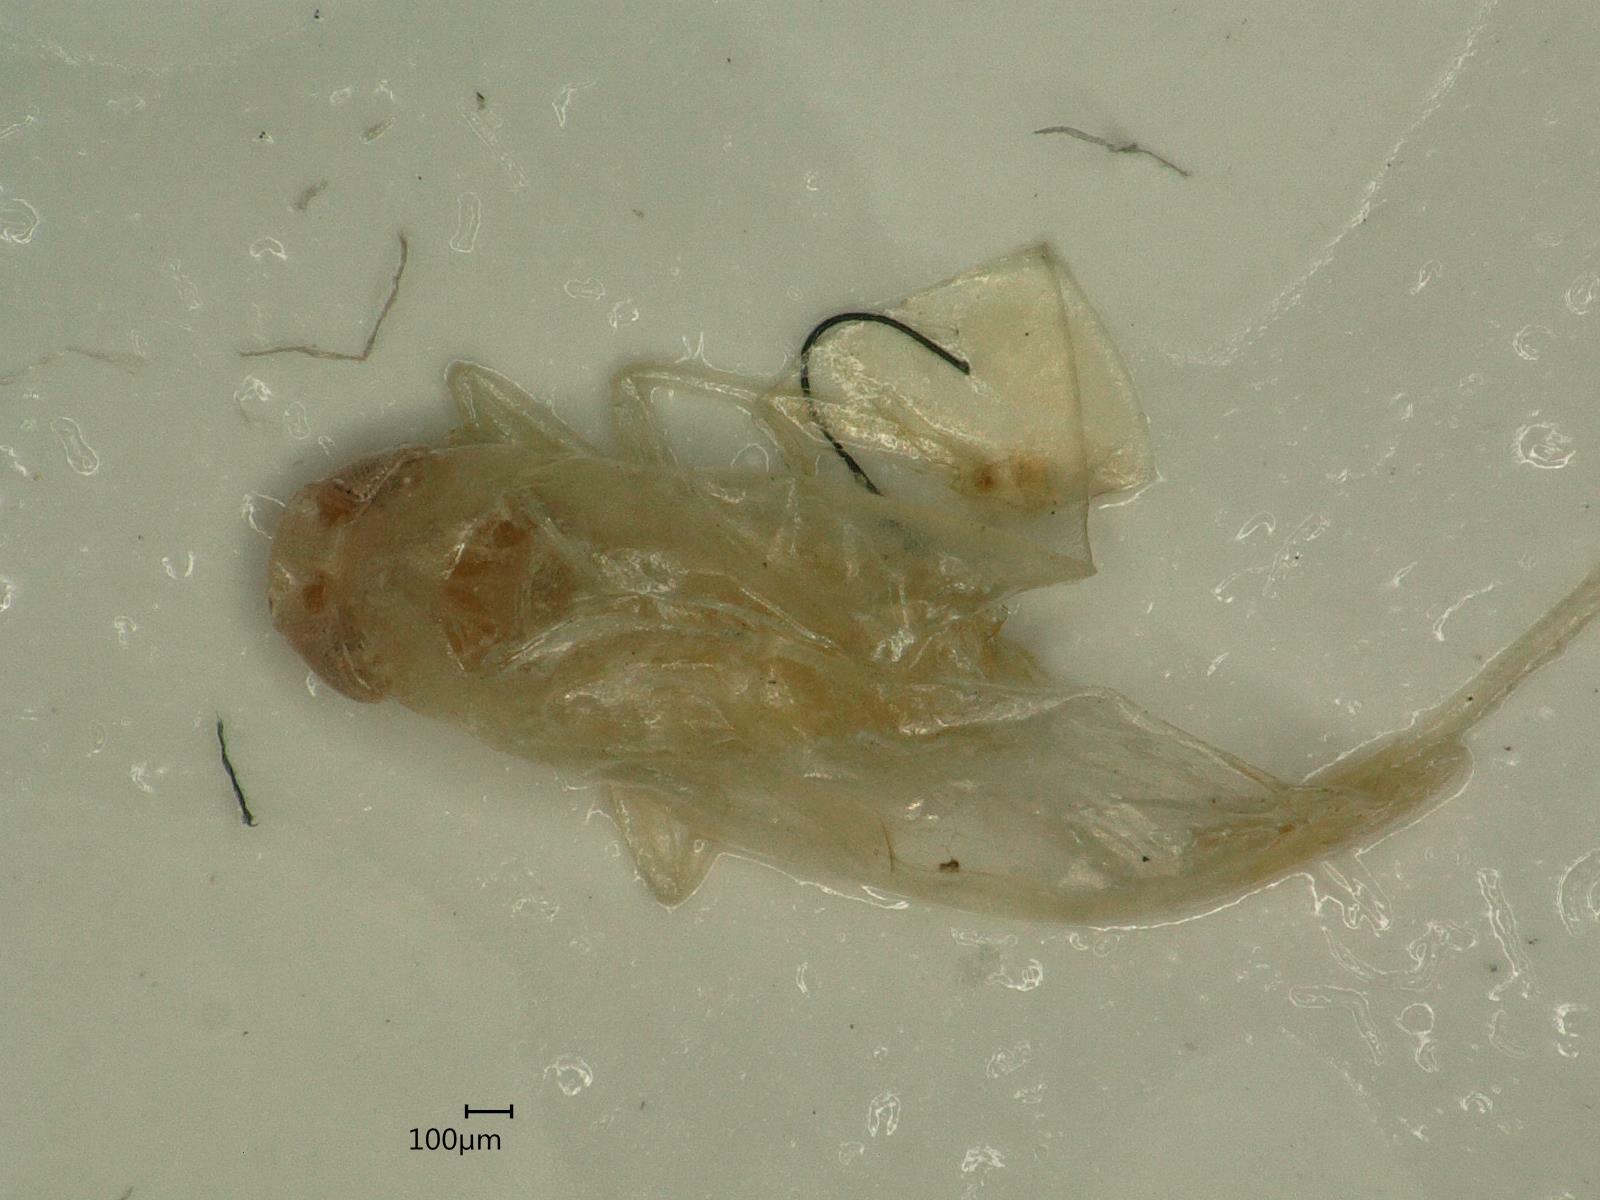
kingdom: Animalia
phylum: Arthropoda
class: Insecta
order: Hemiptera
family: Cicadellidae
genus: Edwardsiana
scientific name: Edwardsiana ulmiphagus
